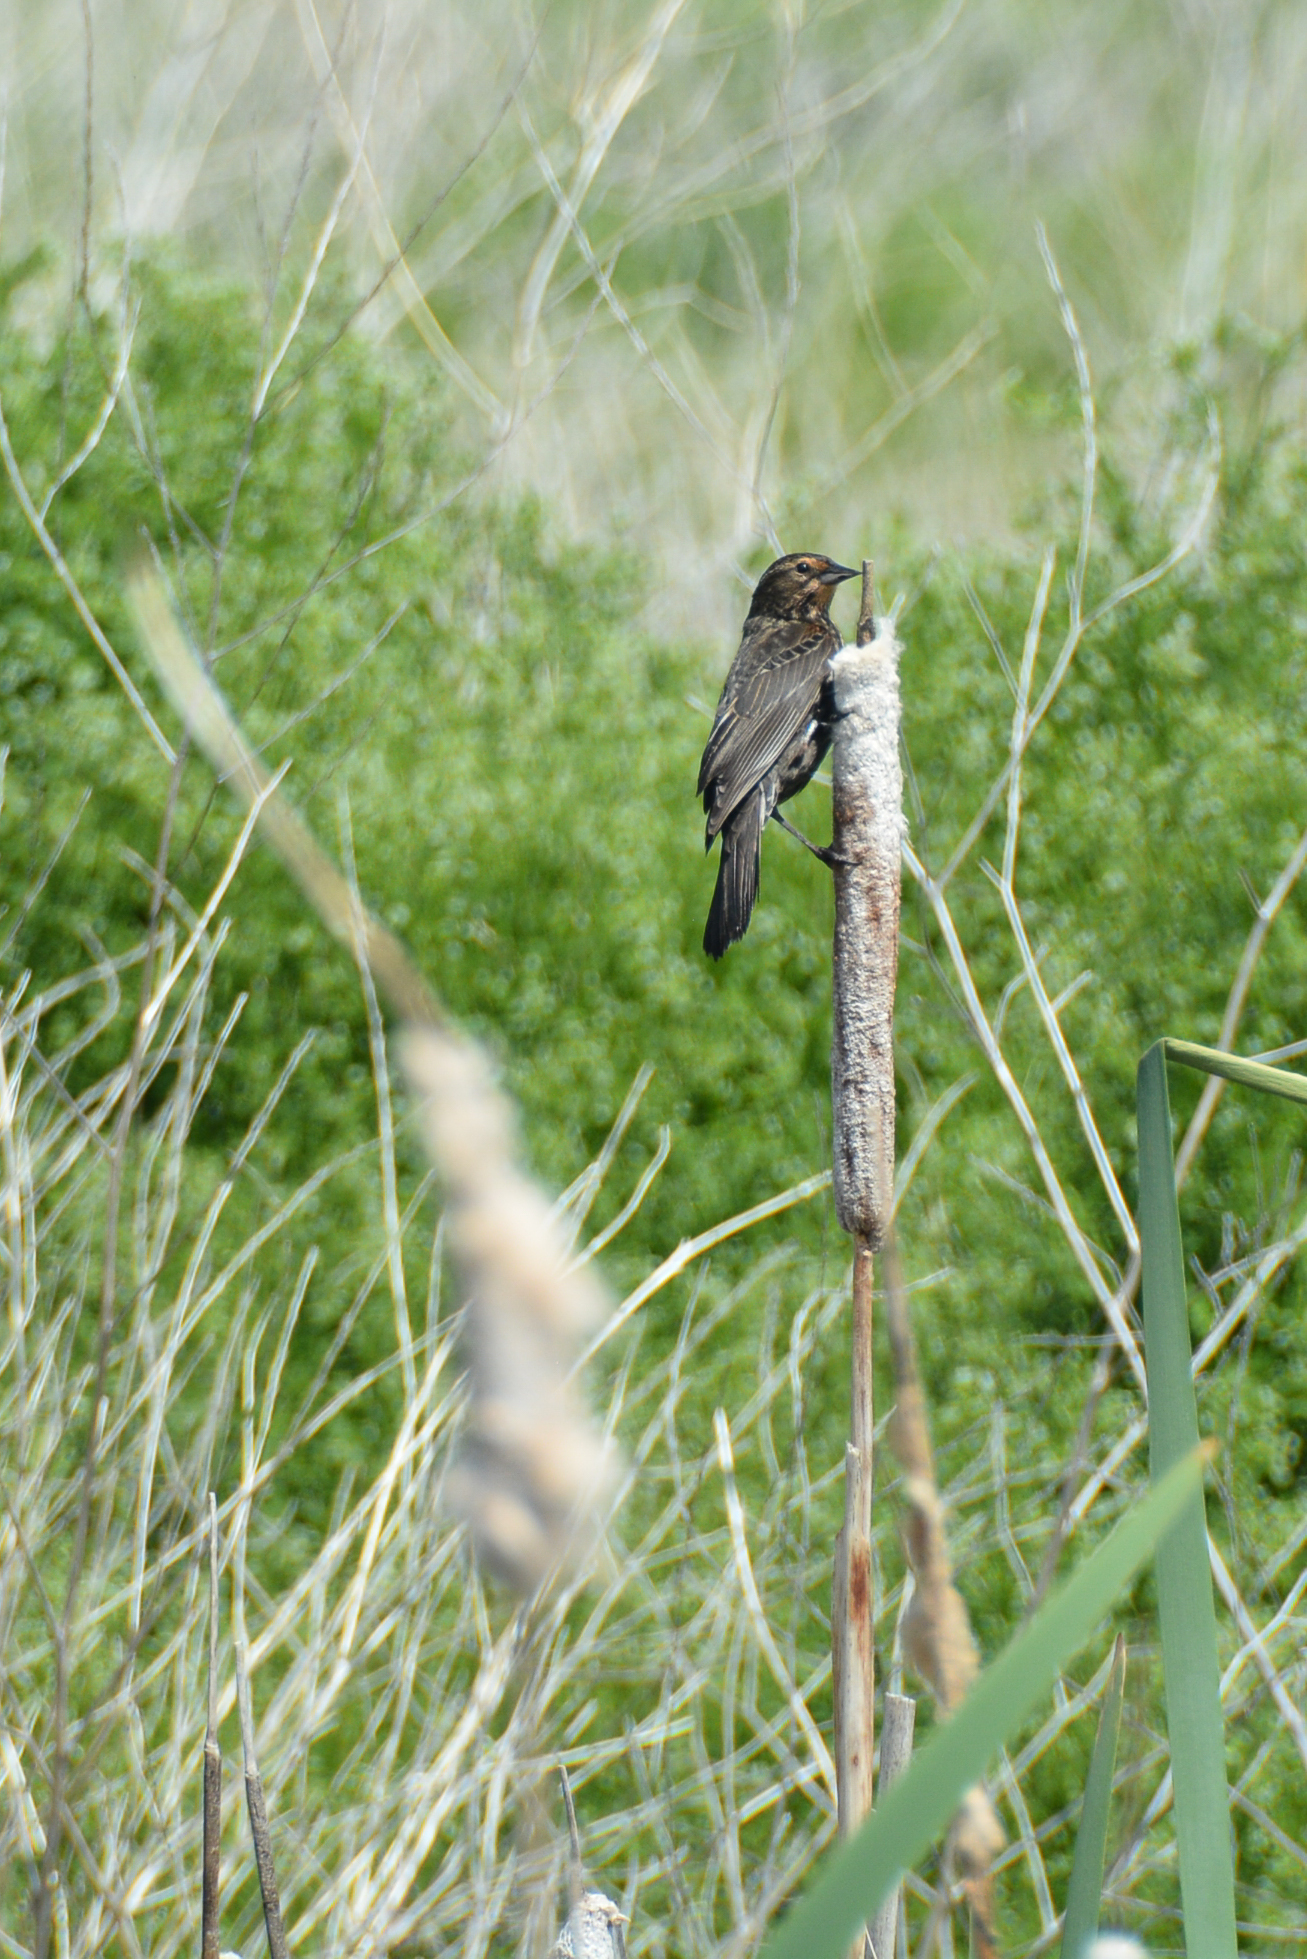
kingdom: Animalia
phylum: Chordata
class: Aves
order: Passeriformes
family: Icteridae
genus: Agelaius
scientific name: Agelaius phoeniceus
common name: Red-winged blackbird
